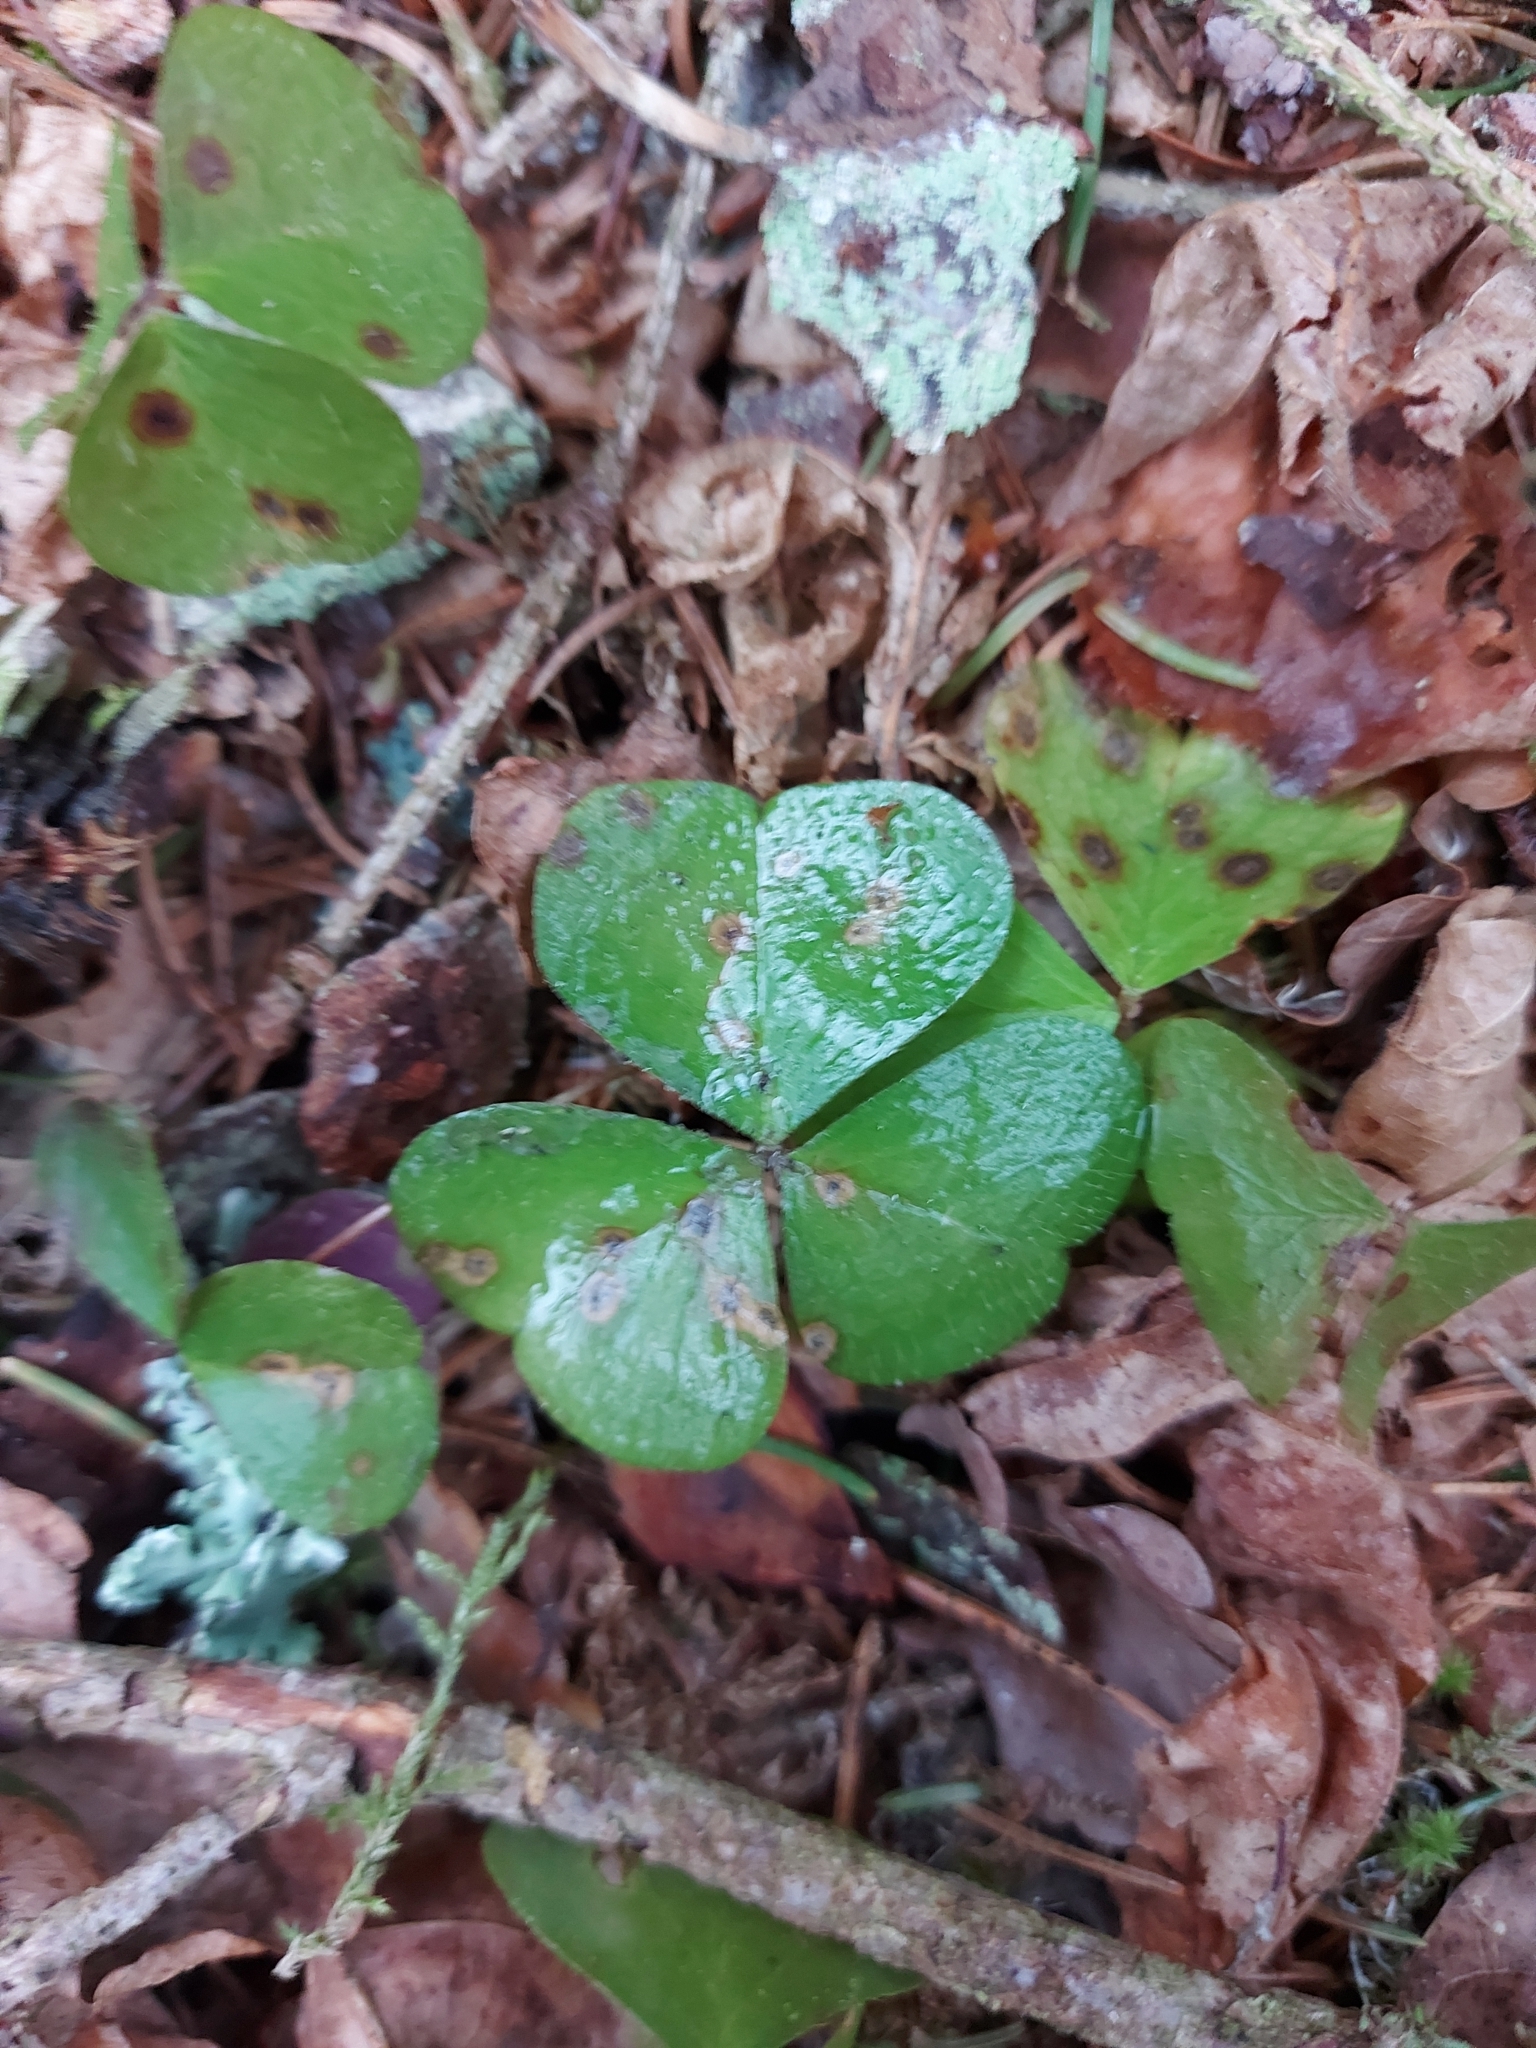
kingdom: Plantae
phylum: Tracheophyta
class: Magnoliopsida
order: Oxalidales
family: Oxalidaceae
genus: Oxalis
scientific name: Oxalis acetosella
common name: Wood-sorrel
